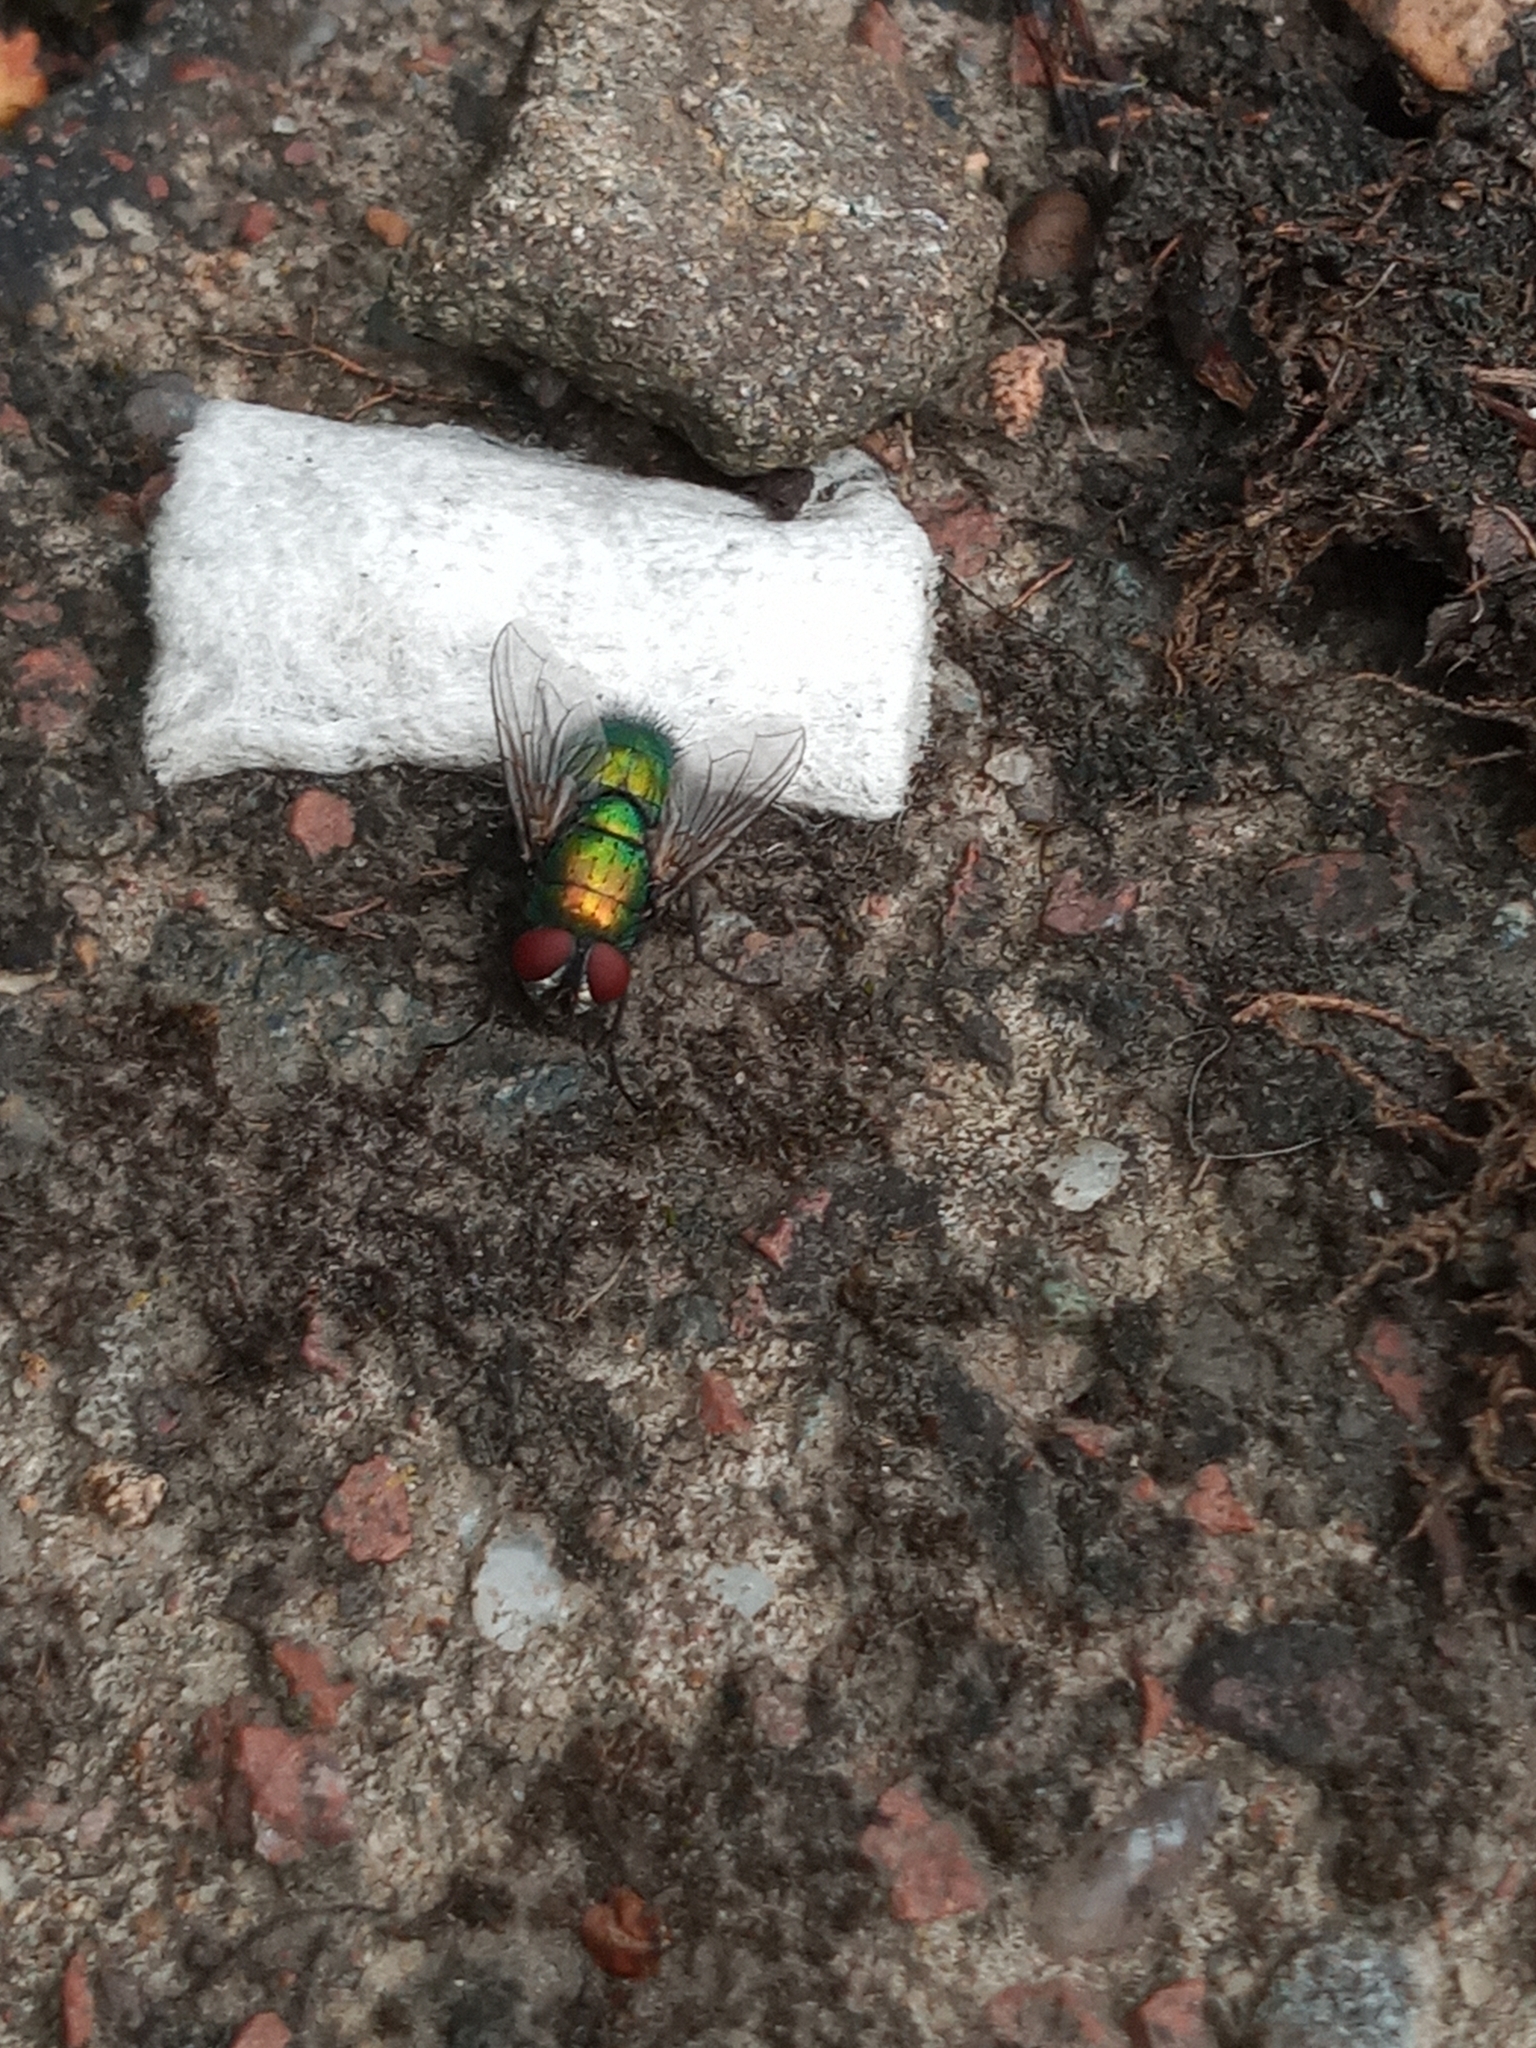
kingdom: Animalia
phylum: Arthropoda
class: Insecta
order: Diptera
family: Calliphoridae
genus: Lucilia
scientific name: Lucilia
